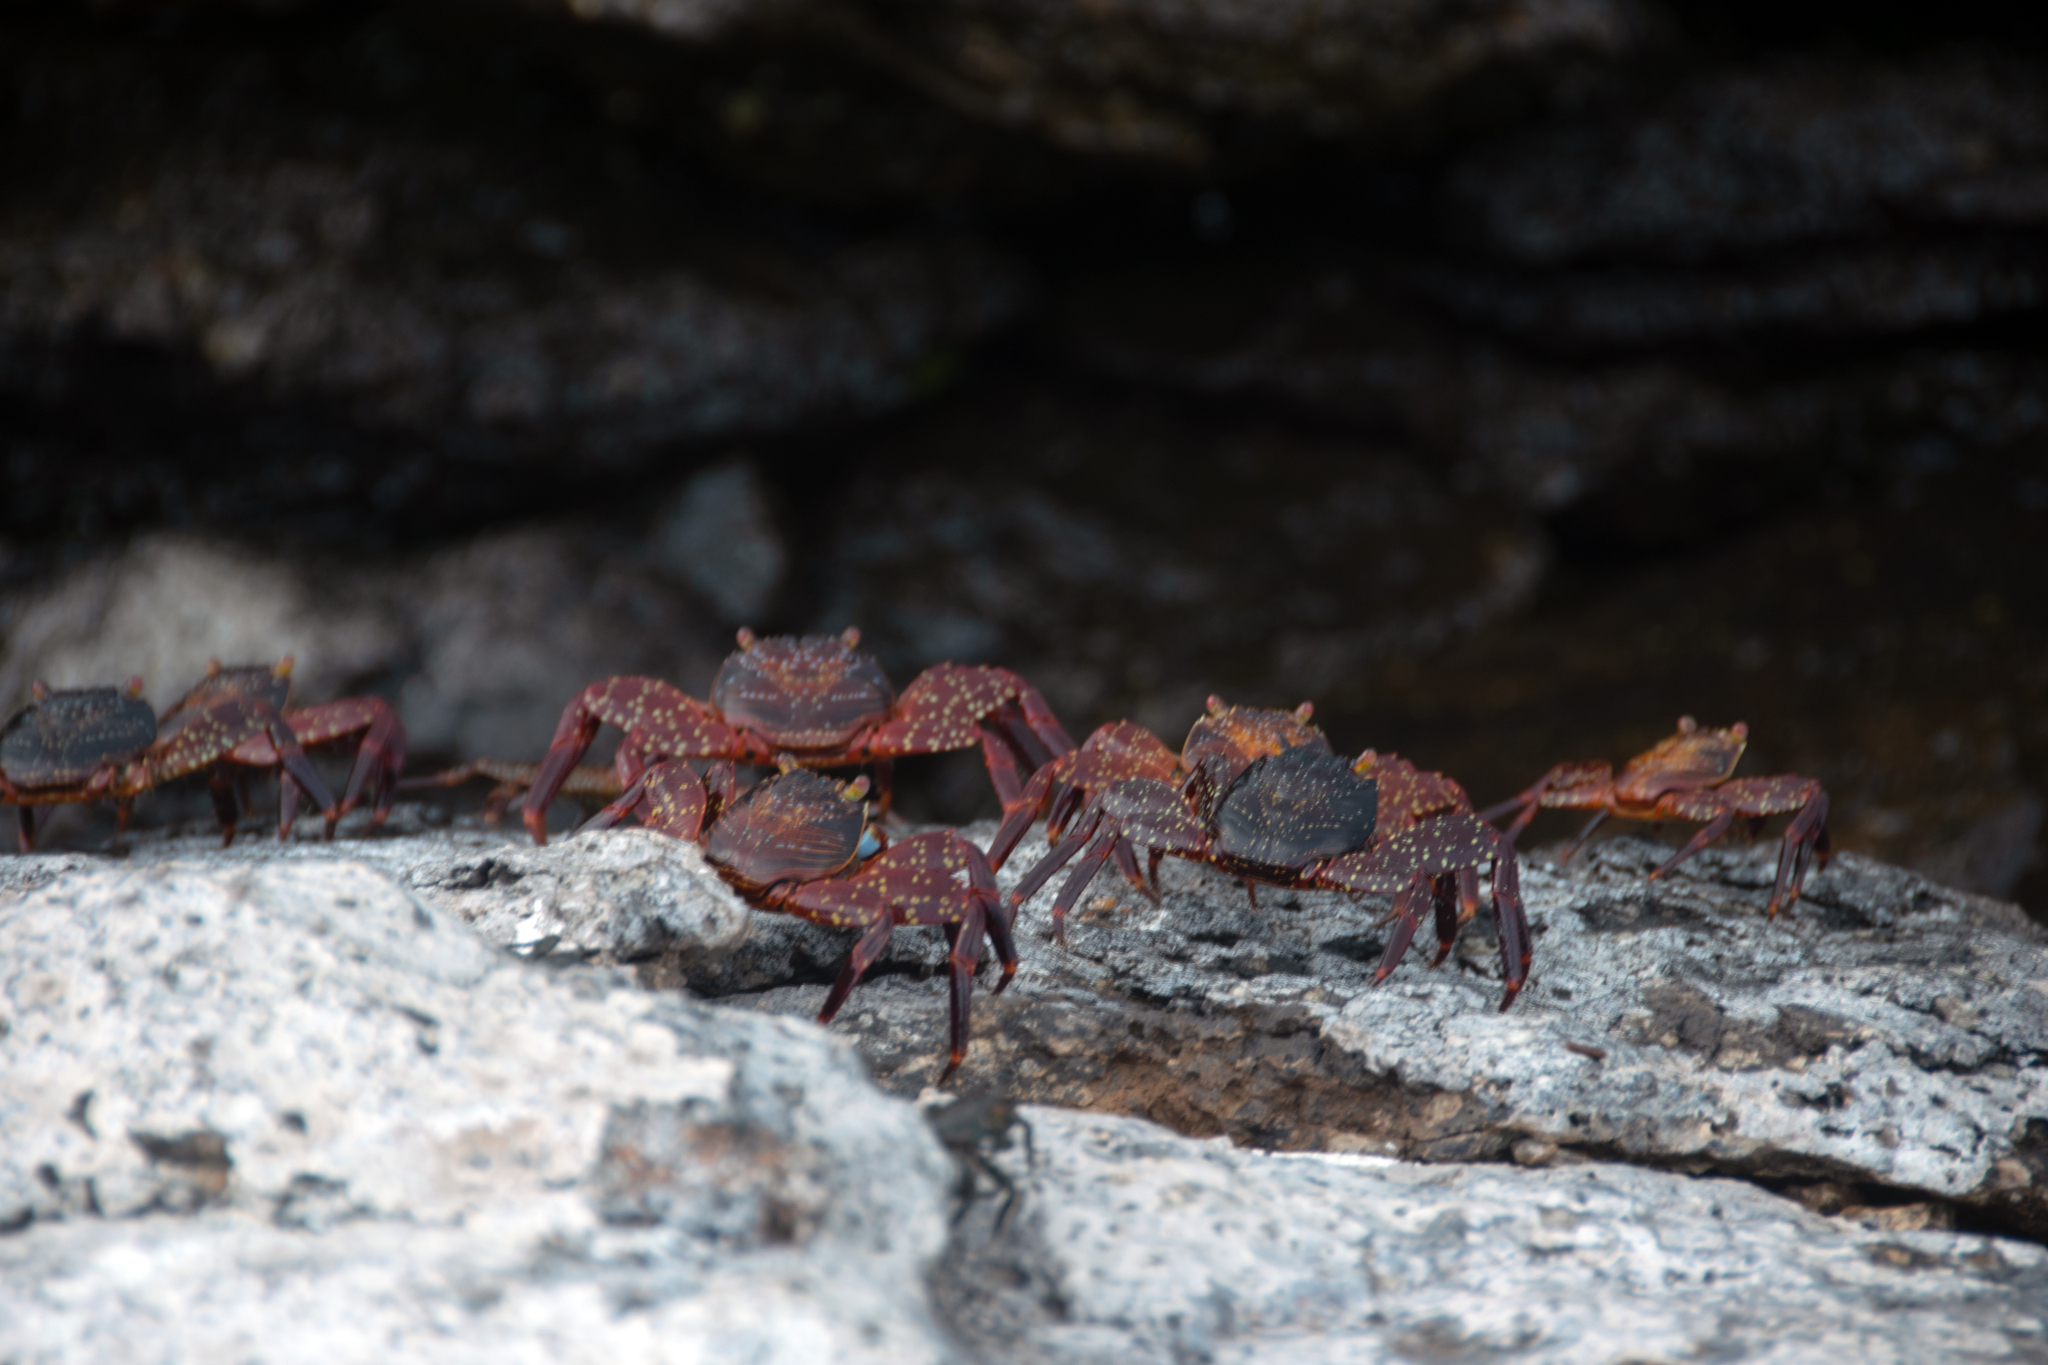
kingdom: Animalia
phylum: Arthropoda
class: Malacostraca
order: Decapoda
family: Grapsidae
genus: Grapsus
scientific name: Grapsus grapsus
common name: Sally lightfoot
